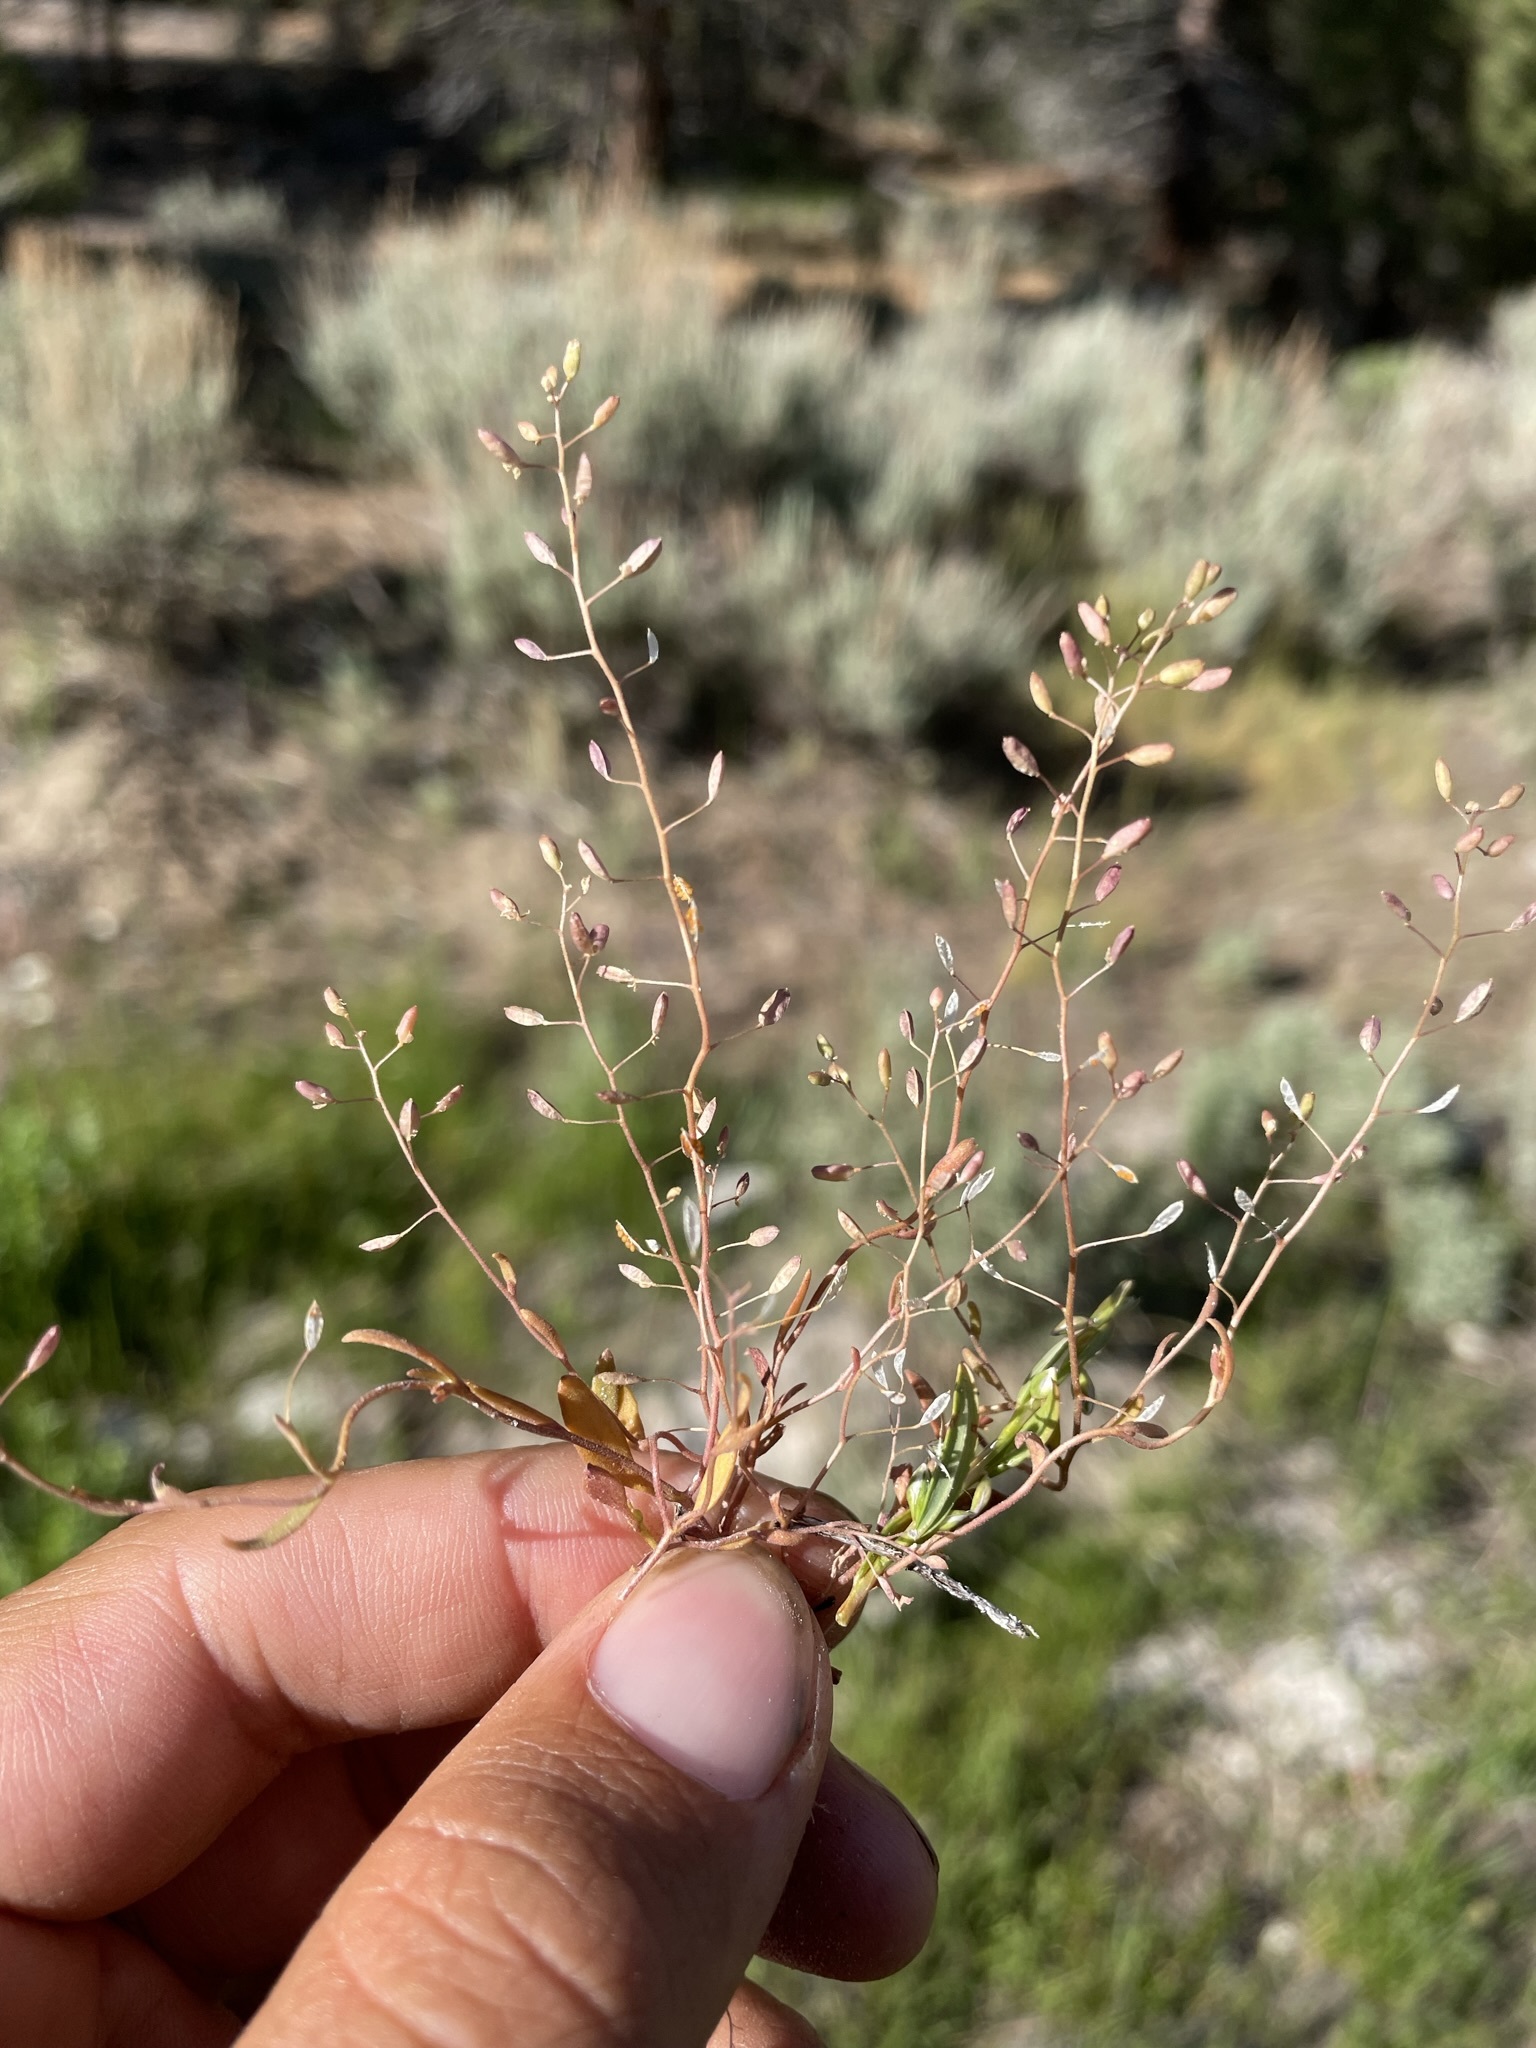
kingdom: Plantae
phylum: Tracheophyta
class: Magnoliopsida
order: Brassicales
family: Brassicaceae
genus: Hornungia
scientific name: Hornungia procumbens
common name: Oval purse
